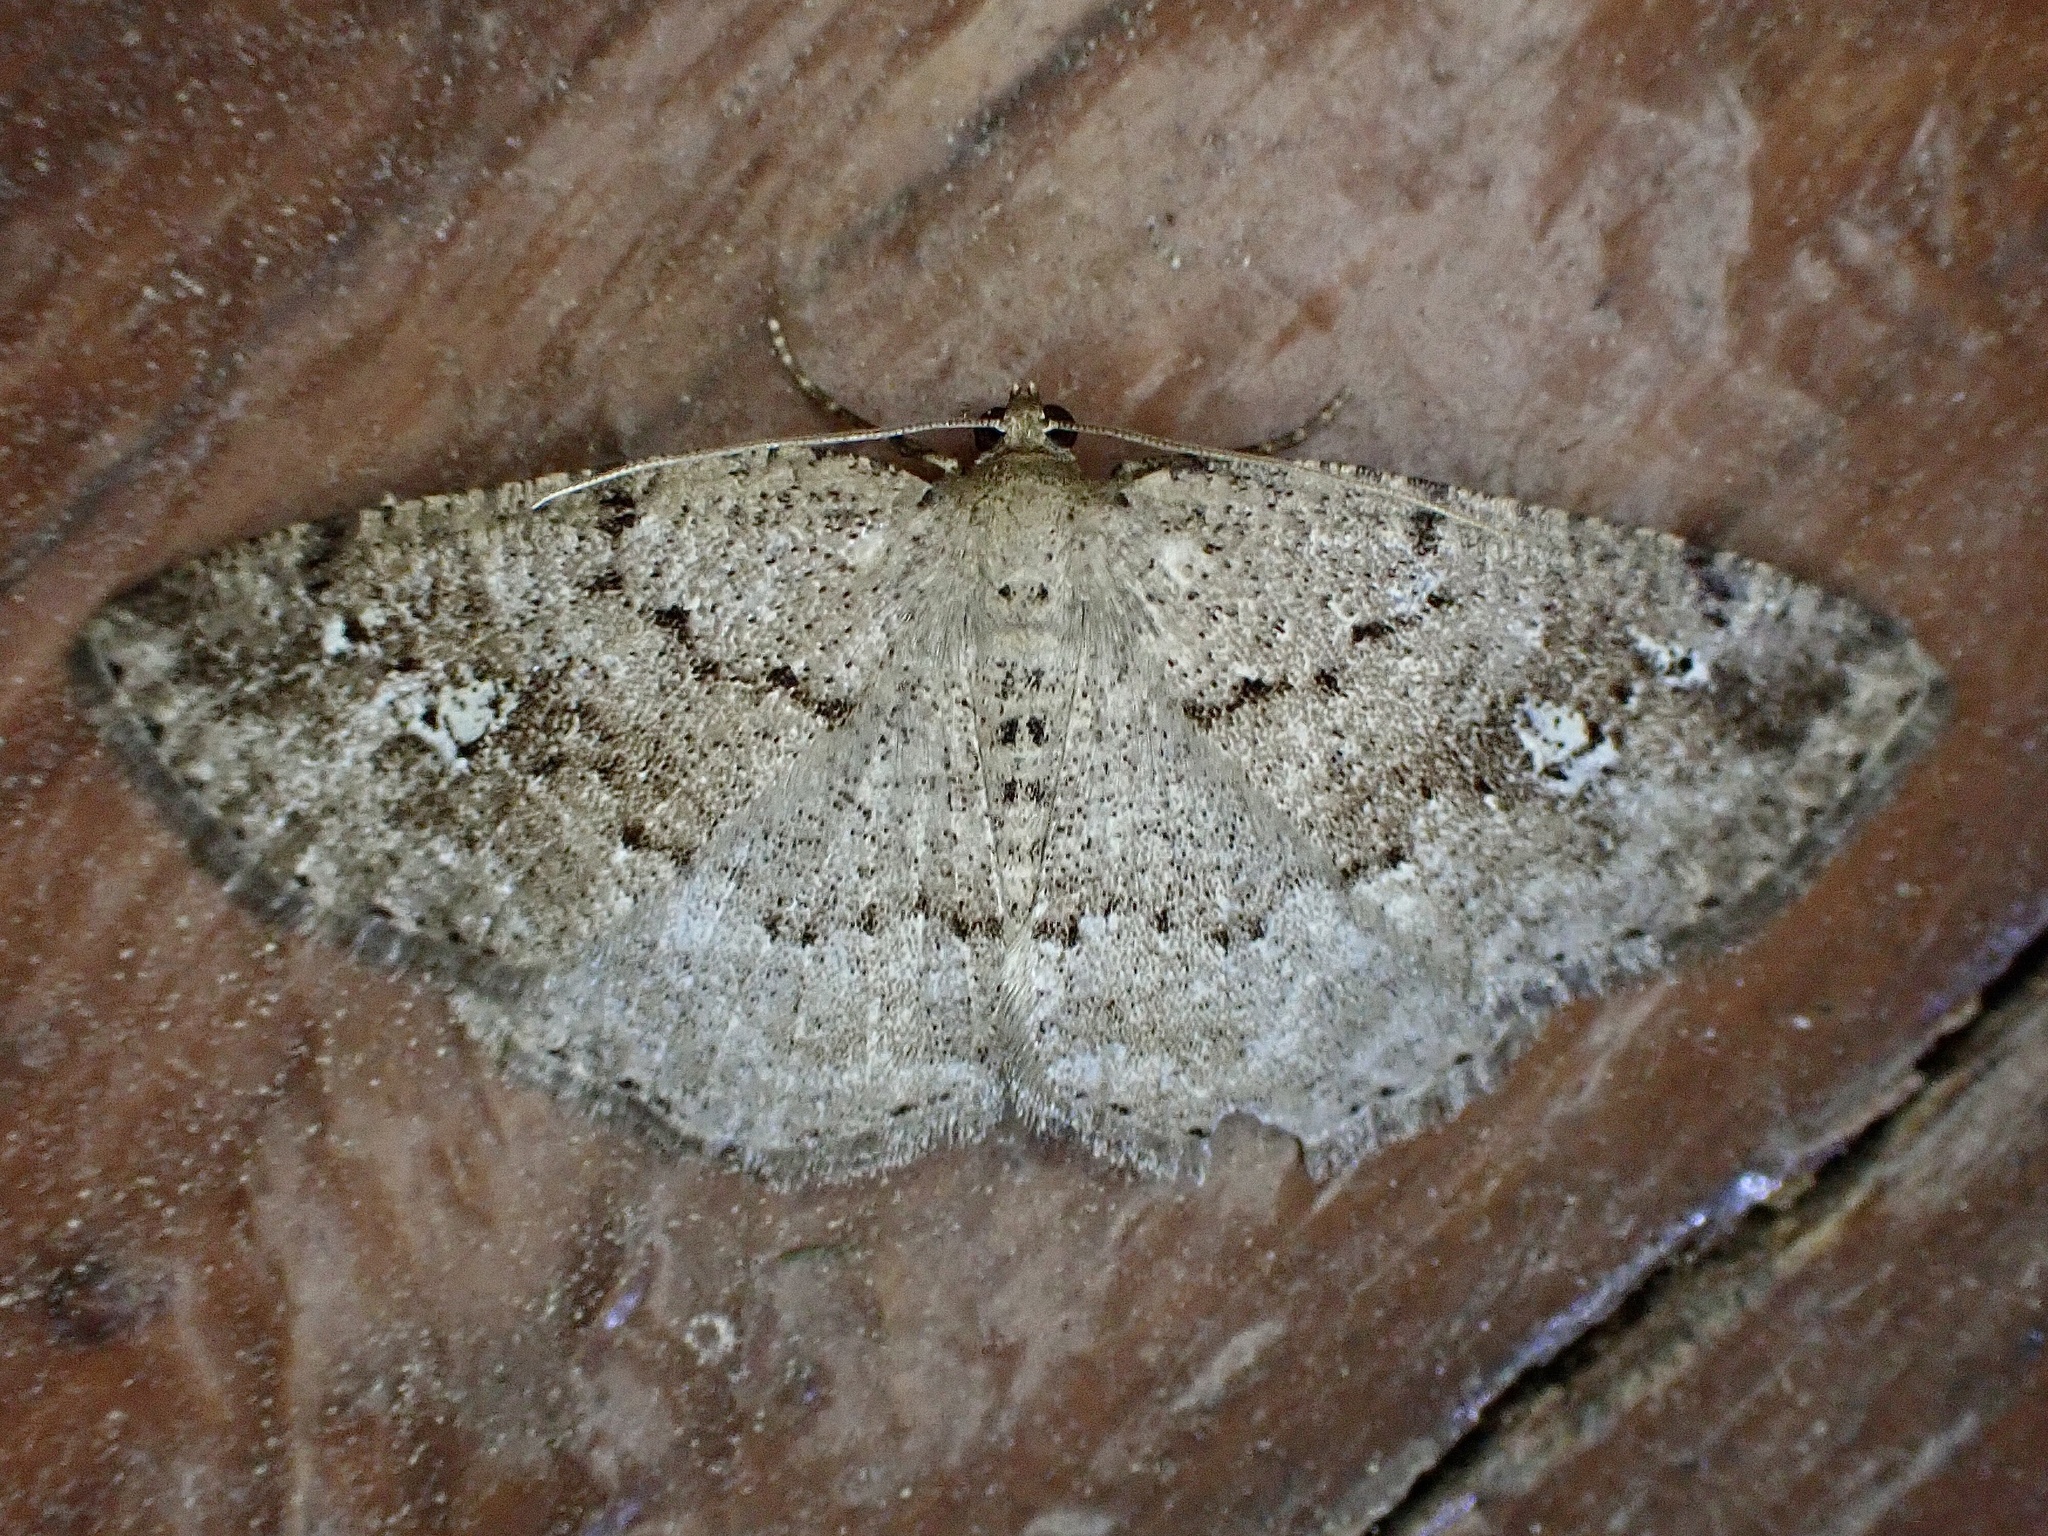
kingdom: Animalia
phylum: Arthropoda
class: Insecta
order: Lepidoptera
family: Geometridae
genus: Homochlodes
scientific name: Homochlodes fritillaria
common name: Pale homochlodes
